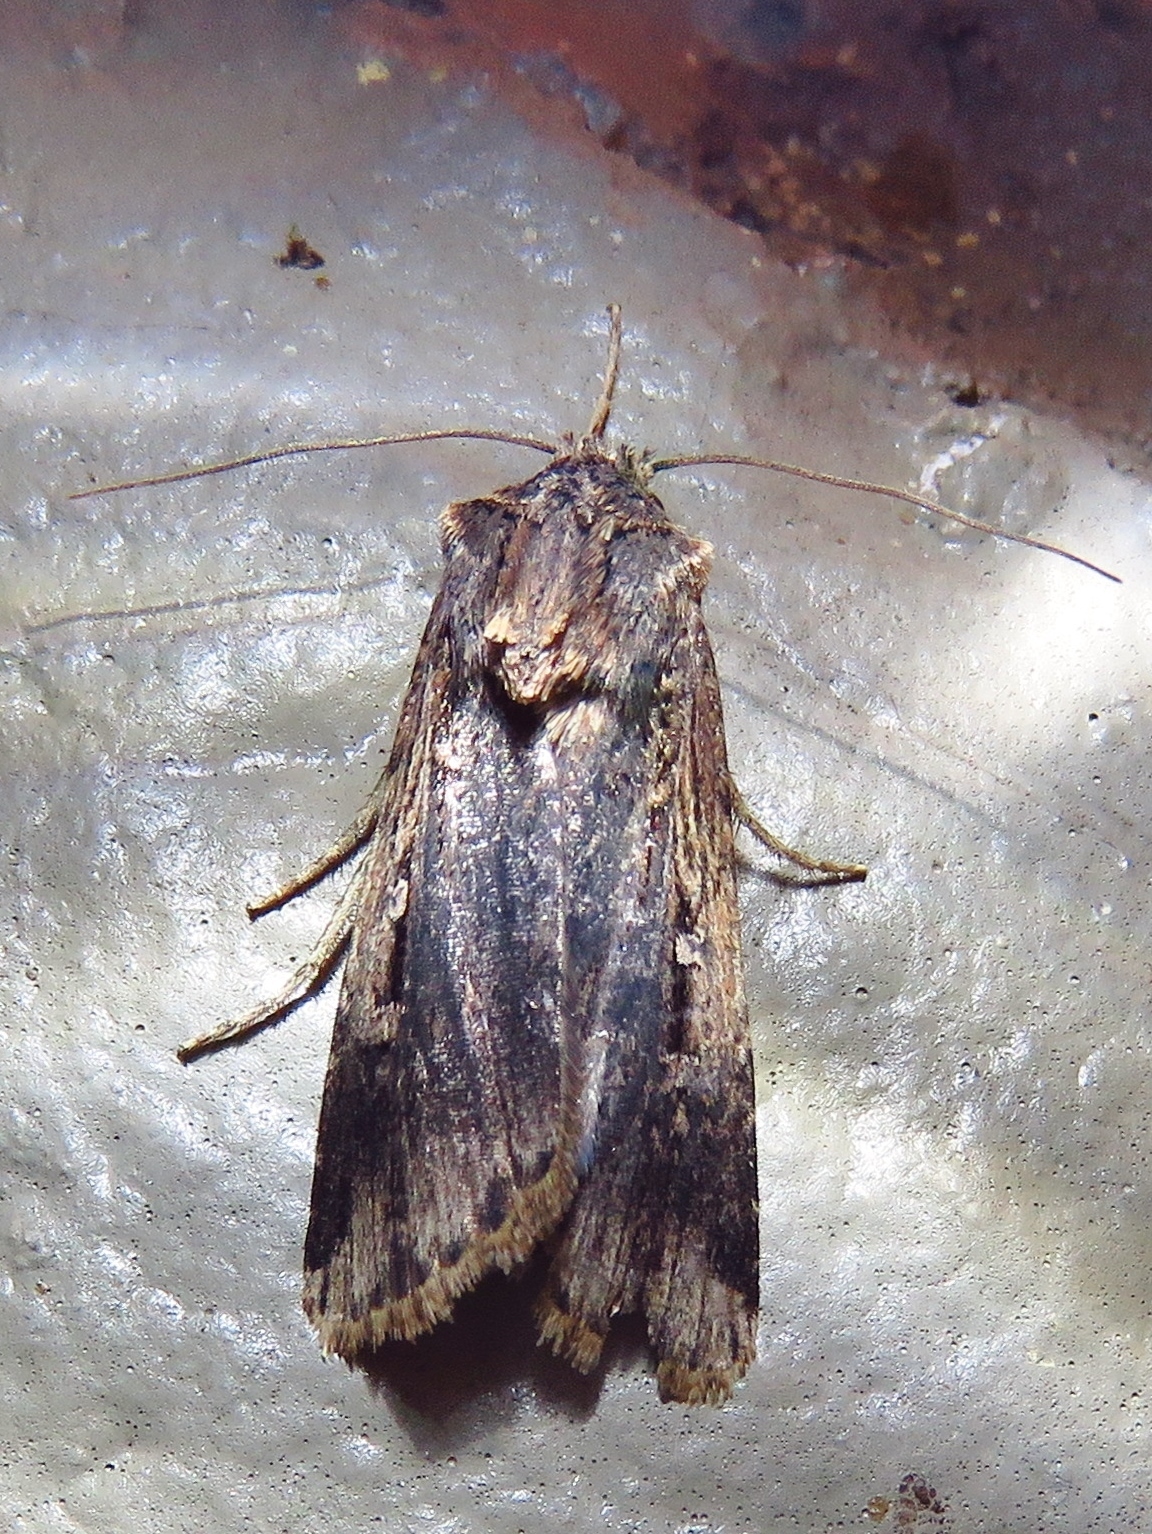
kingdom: Animalia
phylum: Arthropoda
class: Insecta
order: Lepidoptera
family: Noctuidae
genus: Feltia
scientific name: Feltia subterranea
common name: Granulate cutworm
